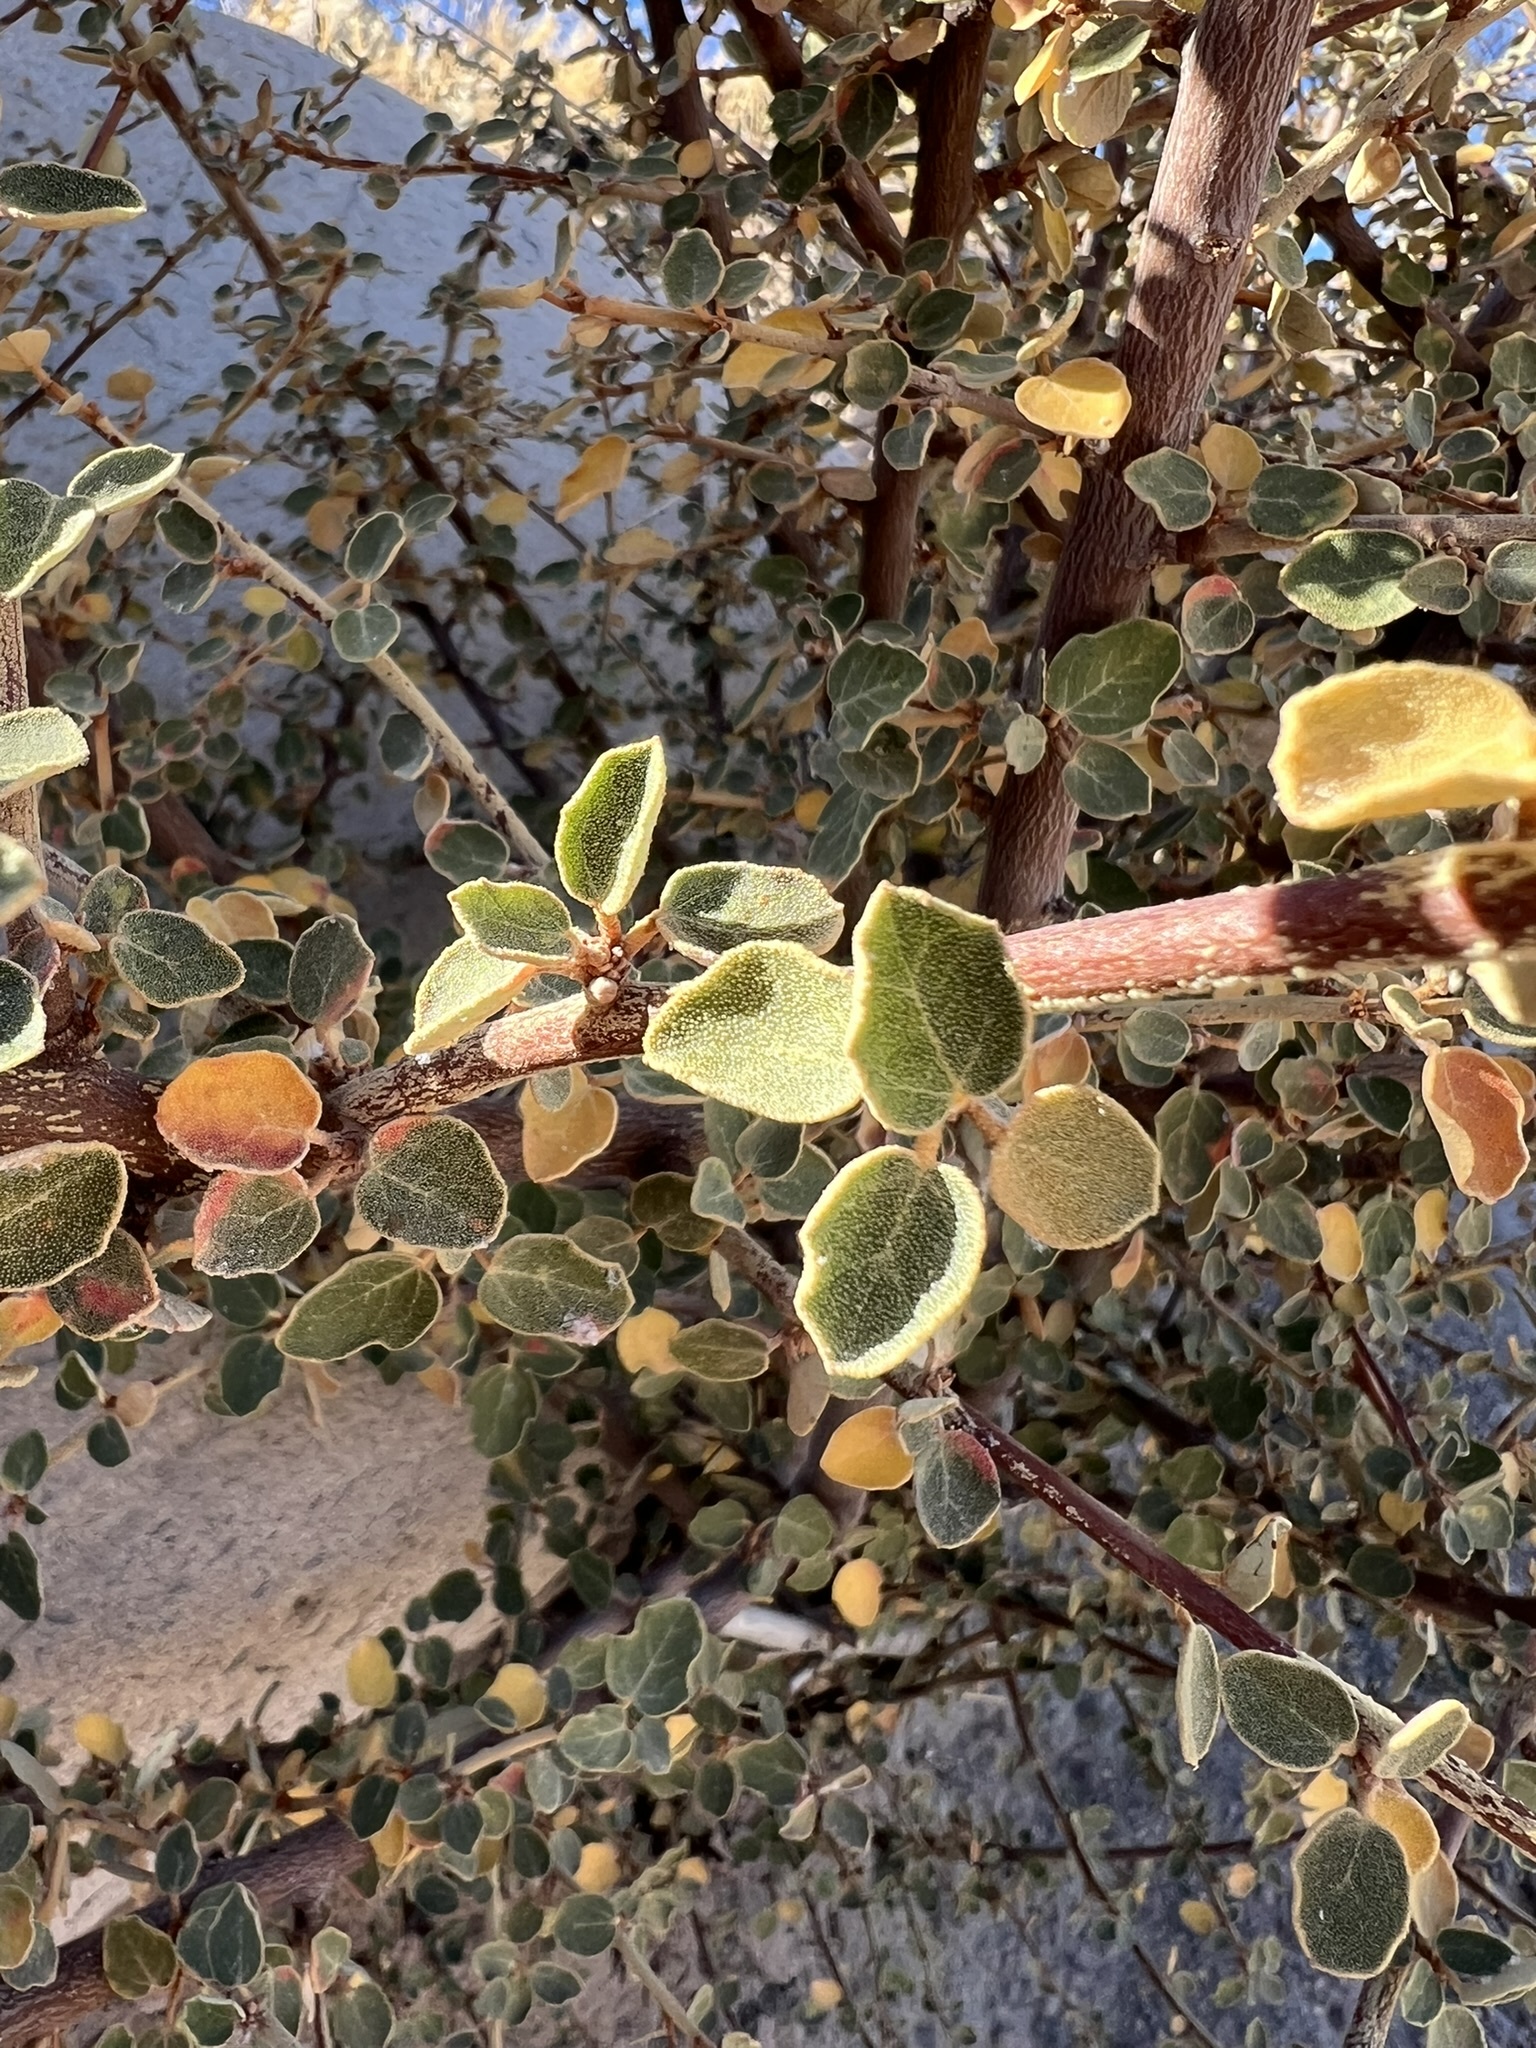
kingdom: Plantae
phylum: Tracheophyta
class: Magnoliopsida
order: Malvales
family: Malvaceae
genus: Fremontodendron
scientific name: Fremontodendron californicum
